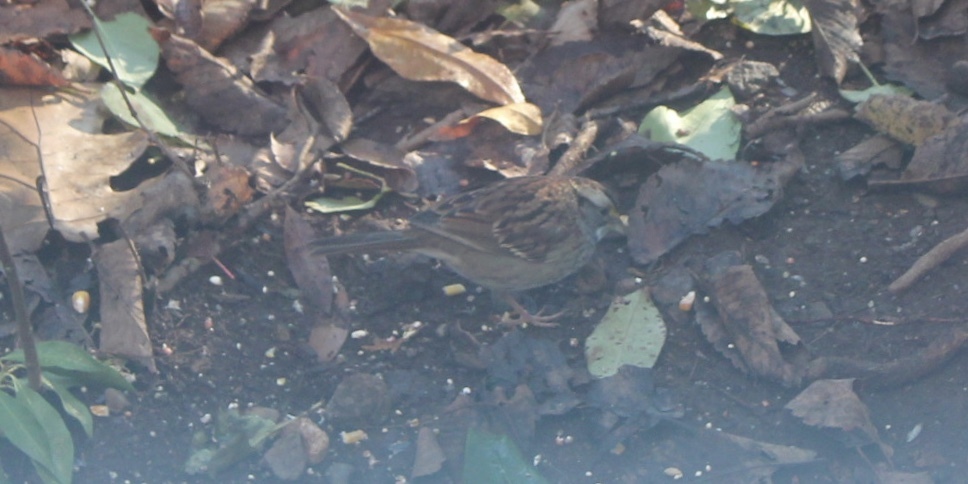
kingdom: Animalia
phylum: Chordata
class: Aves
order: Passeriformes
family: Passerellidae
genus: Zonotrichia
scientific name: Zonotrichia albicollis
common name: White-throated sparrow
